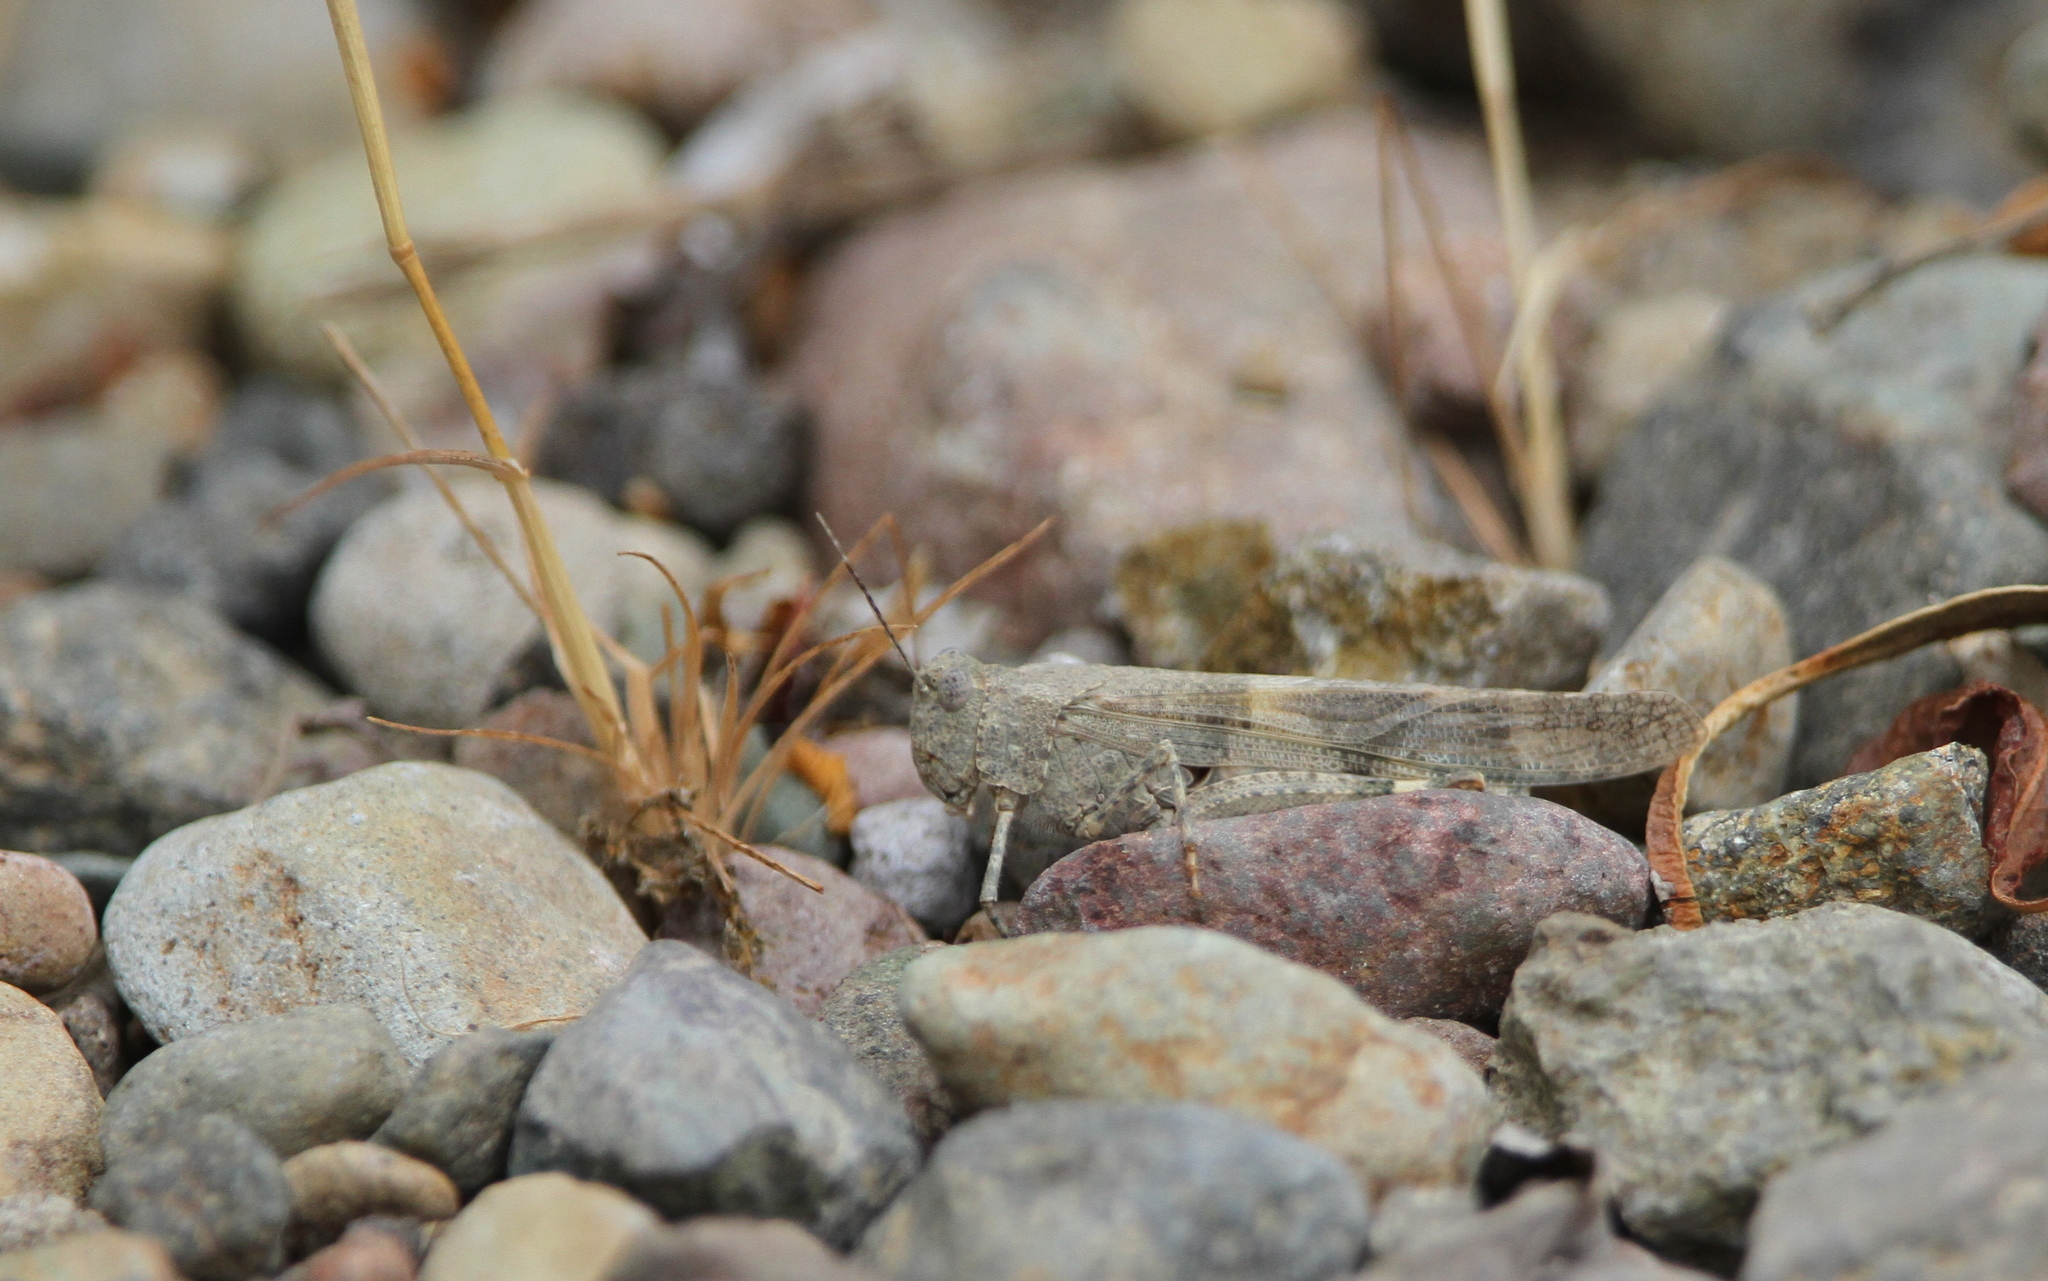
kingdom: Animalia
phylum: Arthropoda
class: Insecta
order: Orthoptera
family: Acrididae
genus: Trimerotropis
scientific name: Trimerotropis pallidipennis
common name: Pallid-winged grasshopper
